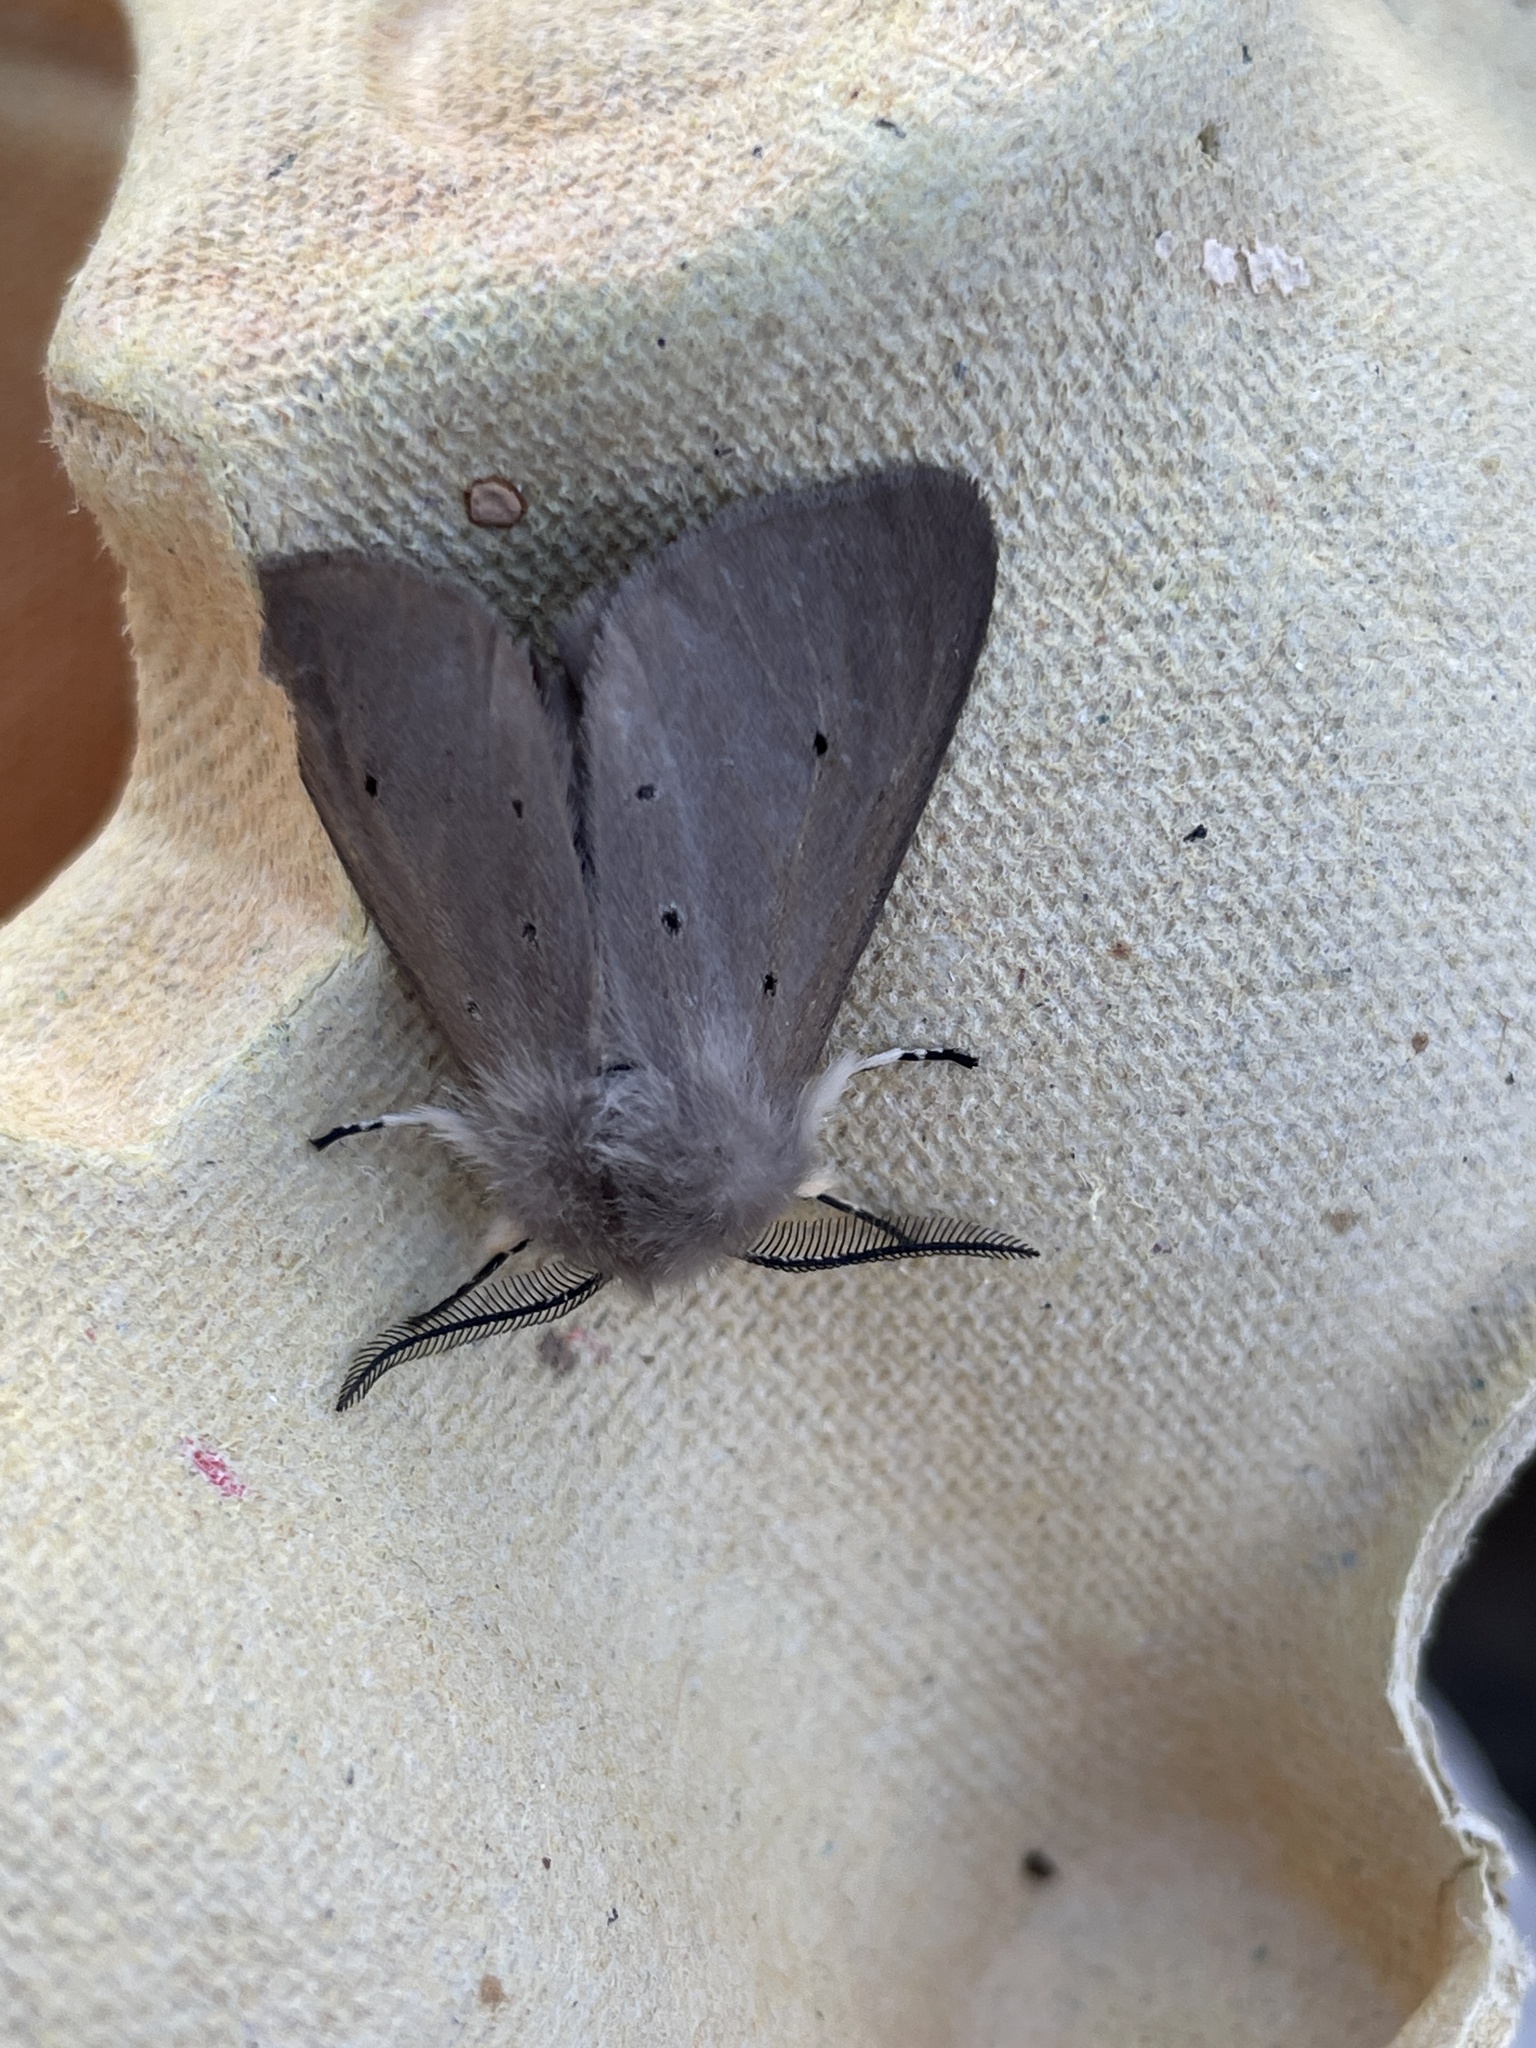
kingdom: Animalia
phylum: Arthropoda
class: Insecta
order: Lepidoptera
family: Erebidae
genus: Diaphora
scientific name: Diaphora mendica
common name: Muslin moth
